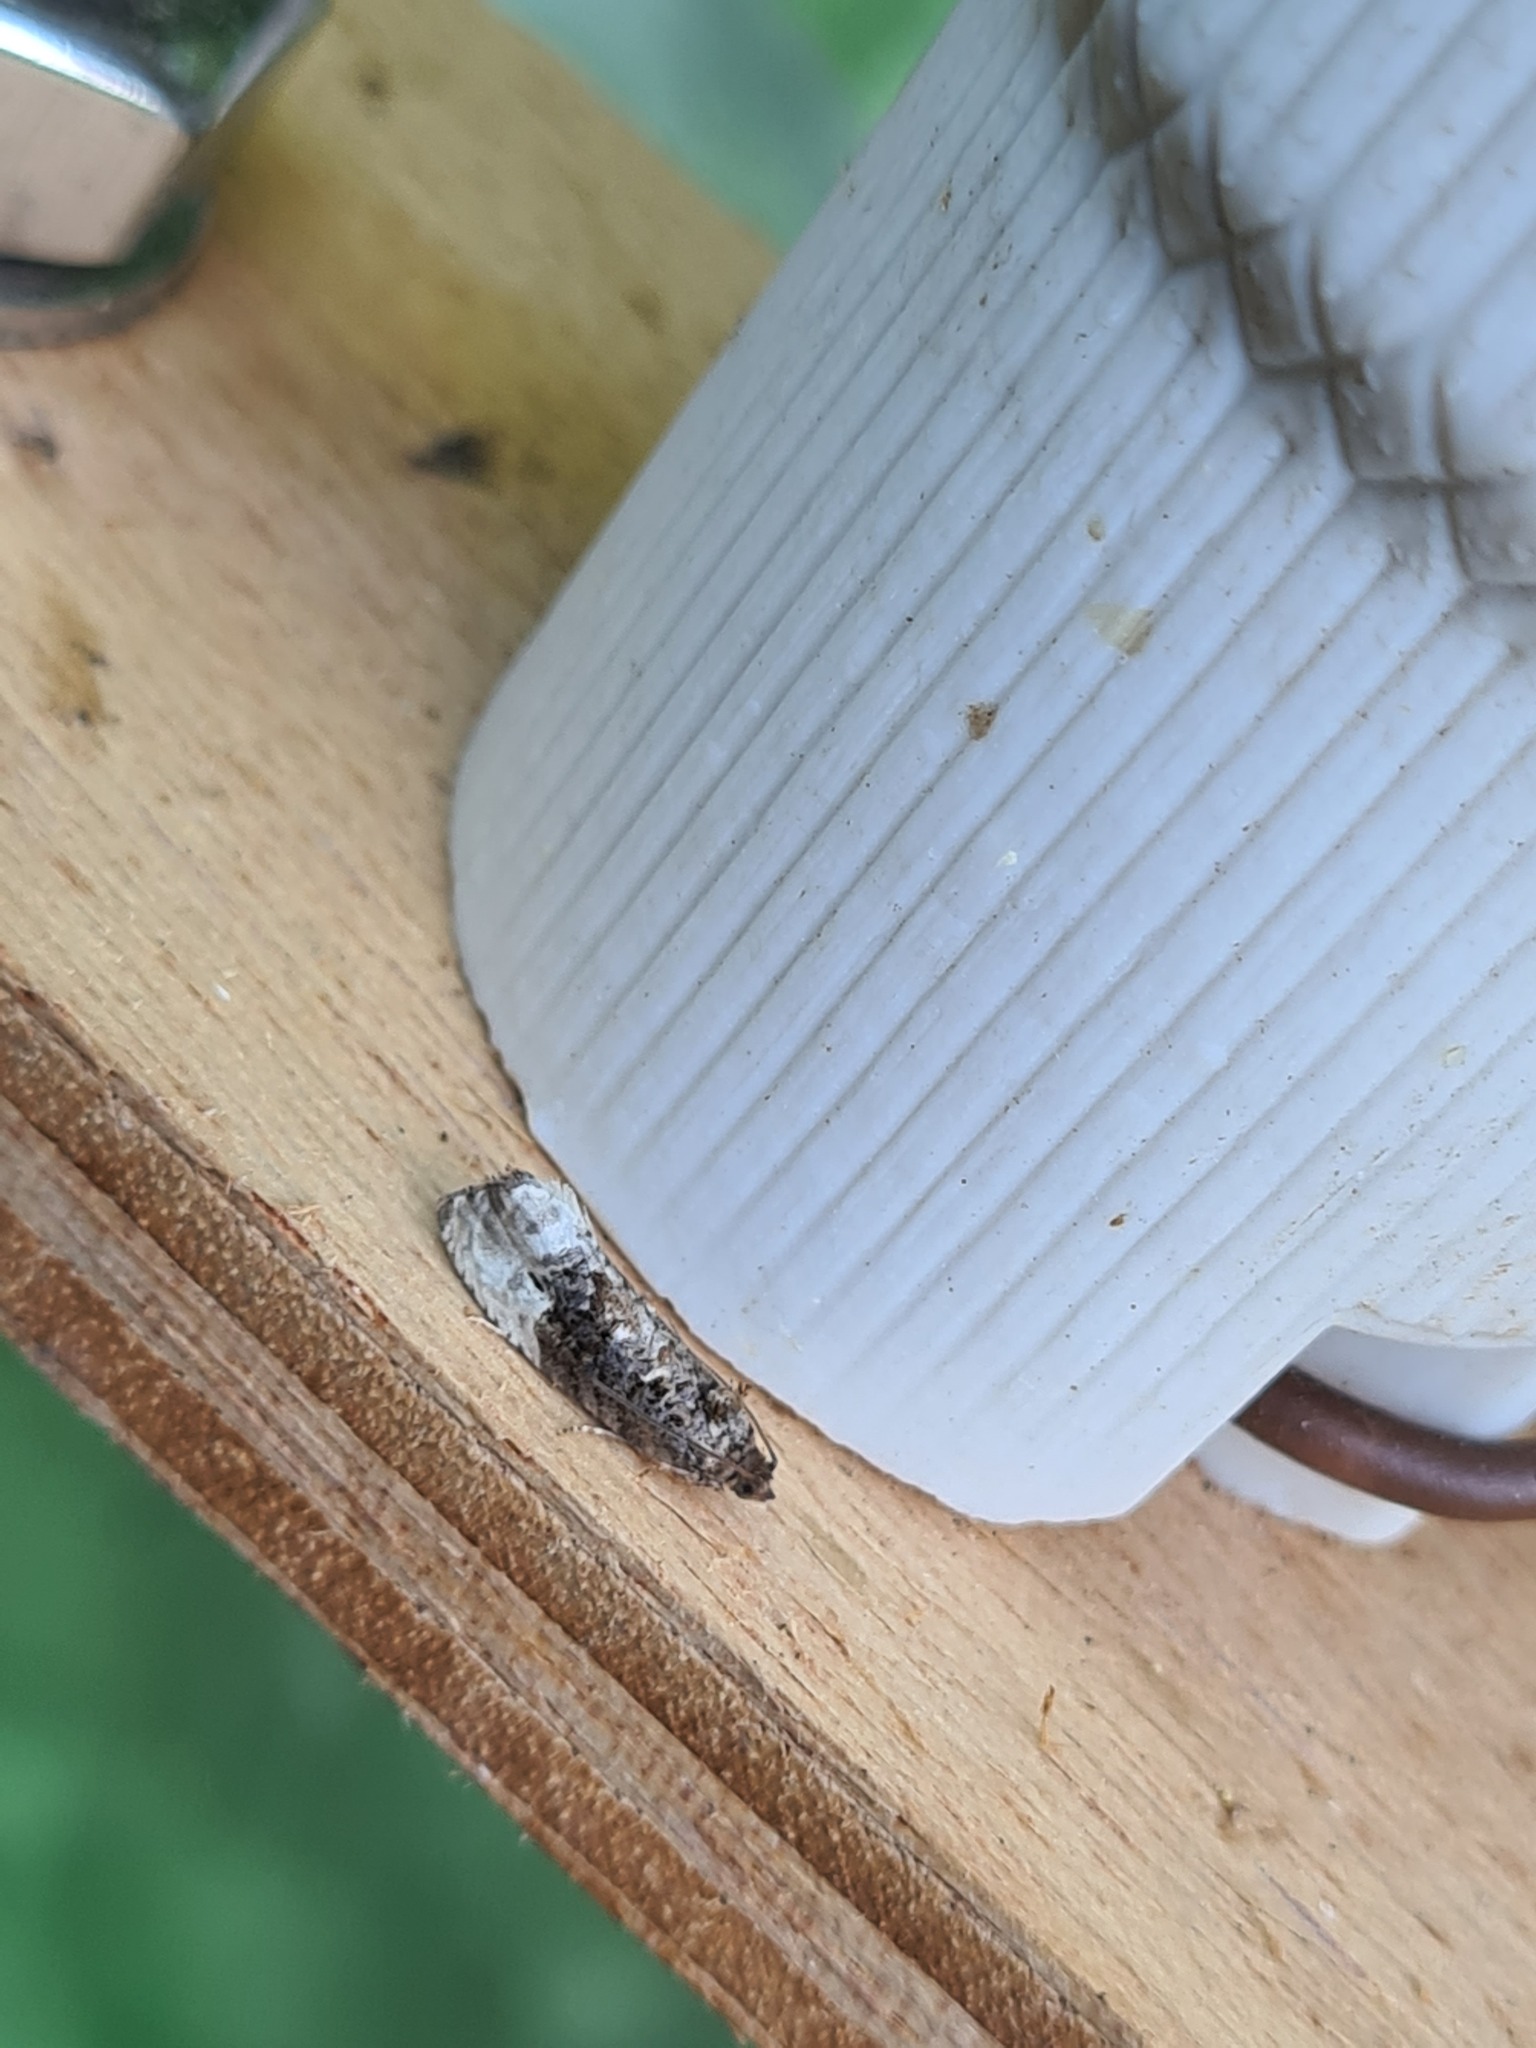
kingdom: Animalia
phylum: Arthropoda
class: Insecta
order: Lepidoptera
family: Tortricidae
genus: Hedya
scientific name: Hedya nubiferana
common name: Marbled orchard tortrix
